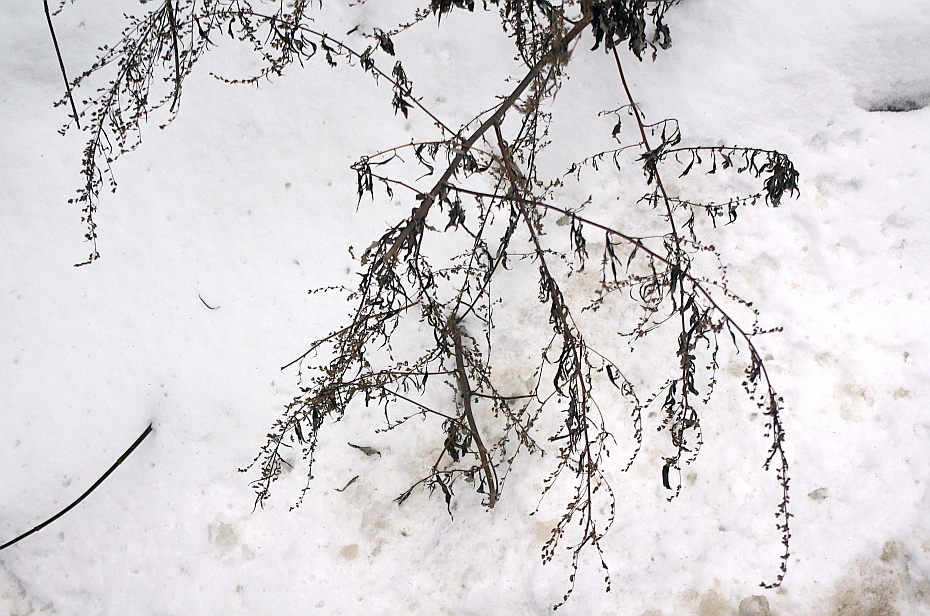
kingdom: Plantae
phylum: Tracheophyta
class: Magnoliopsida
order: Asterales
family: Asteraceae
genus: Artemisia
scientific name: Artemisia vulgaris
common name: Mugwort
